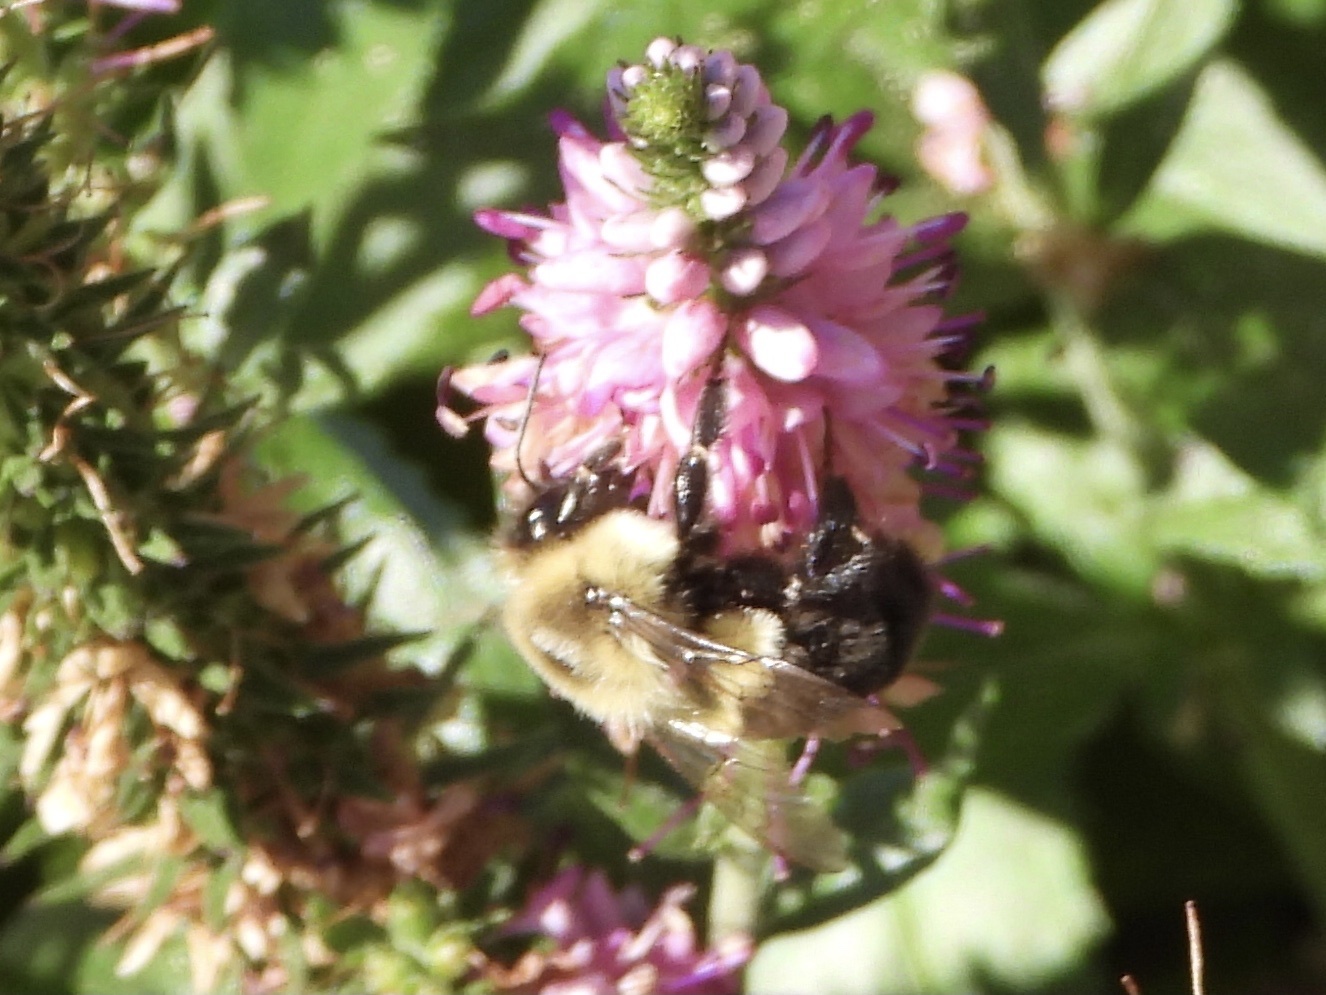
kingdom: Animalia
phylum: Arthropoda
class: Insecta
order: Hymenoptera
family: Apidae
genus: Bombus
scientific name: Bombus impatiens
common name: Common eastern bumble bee
